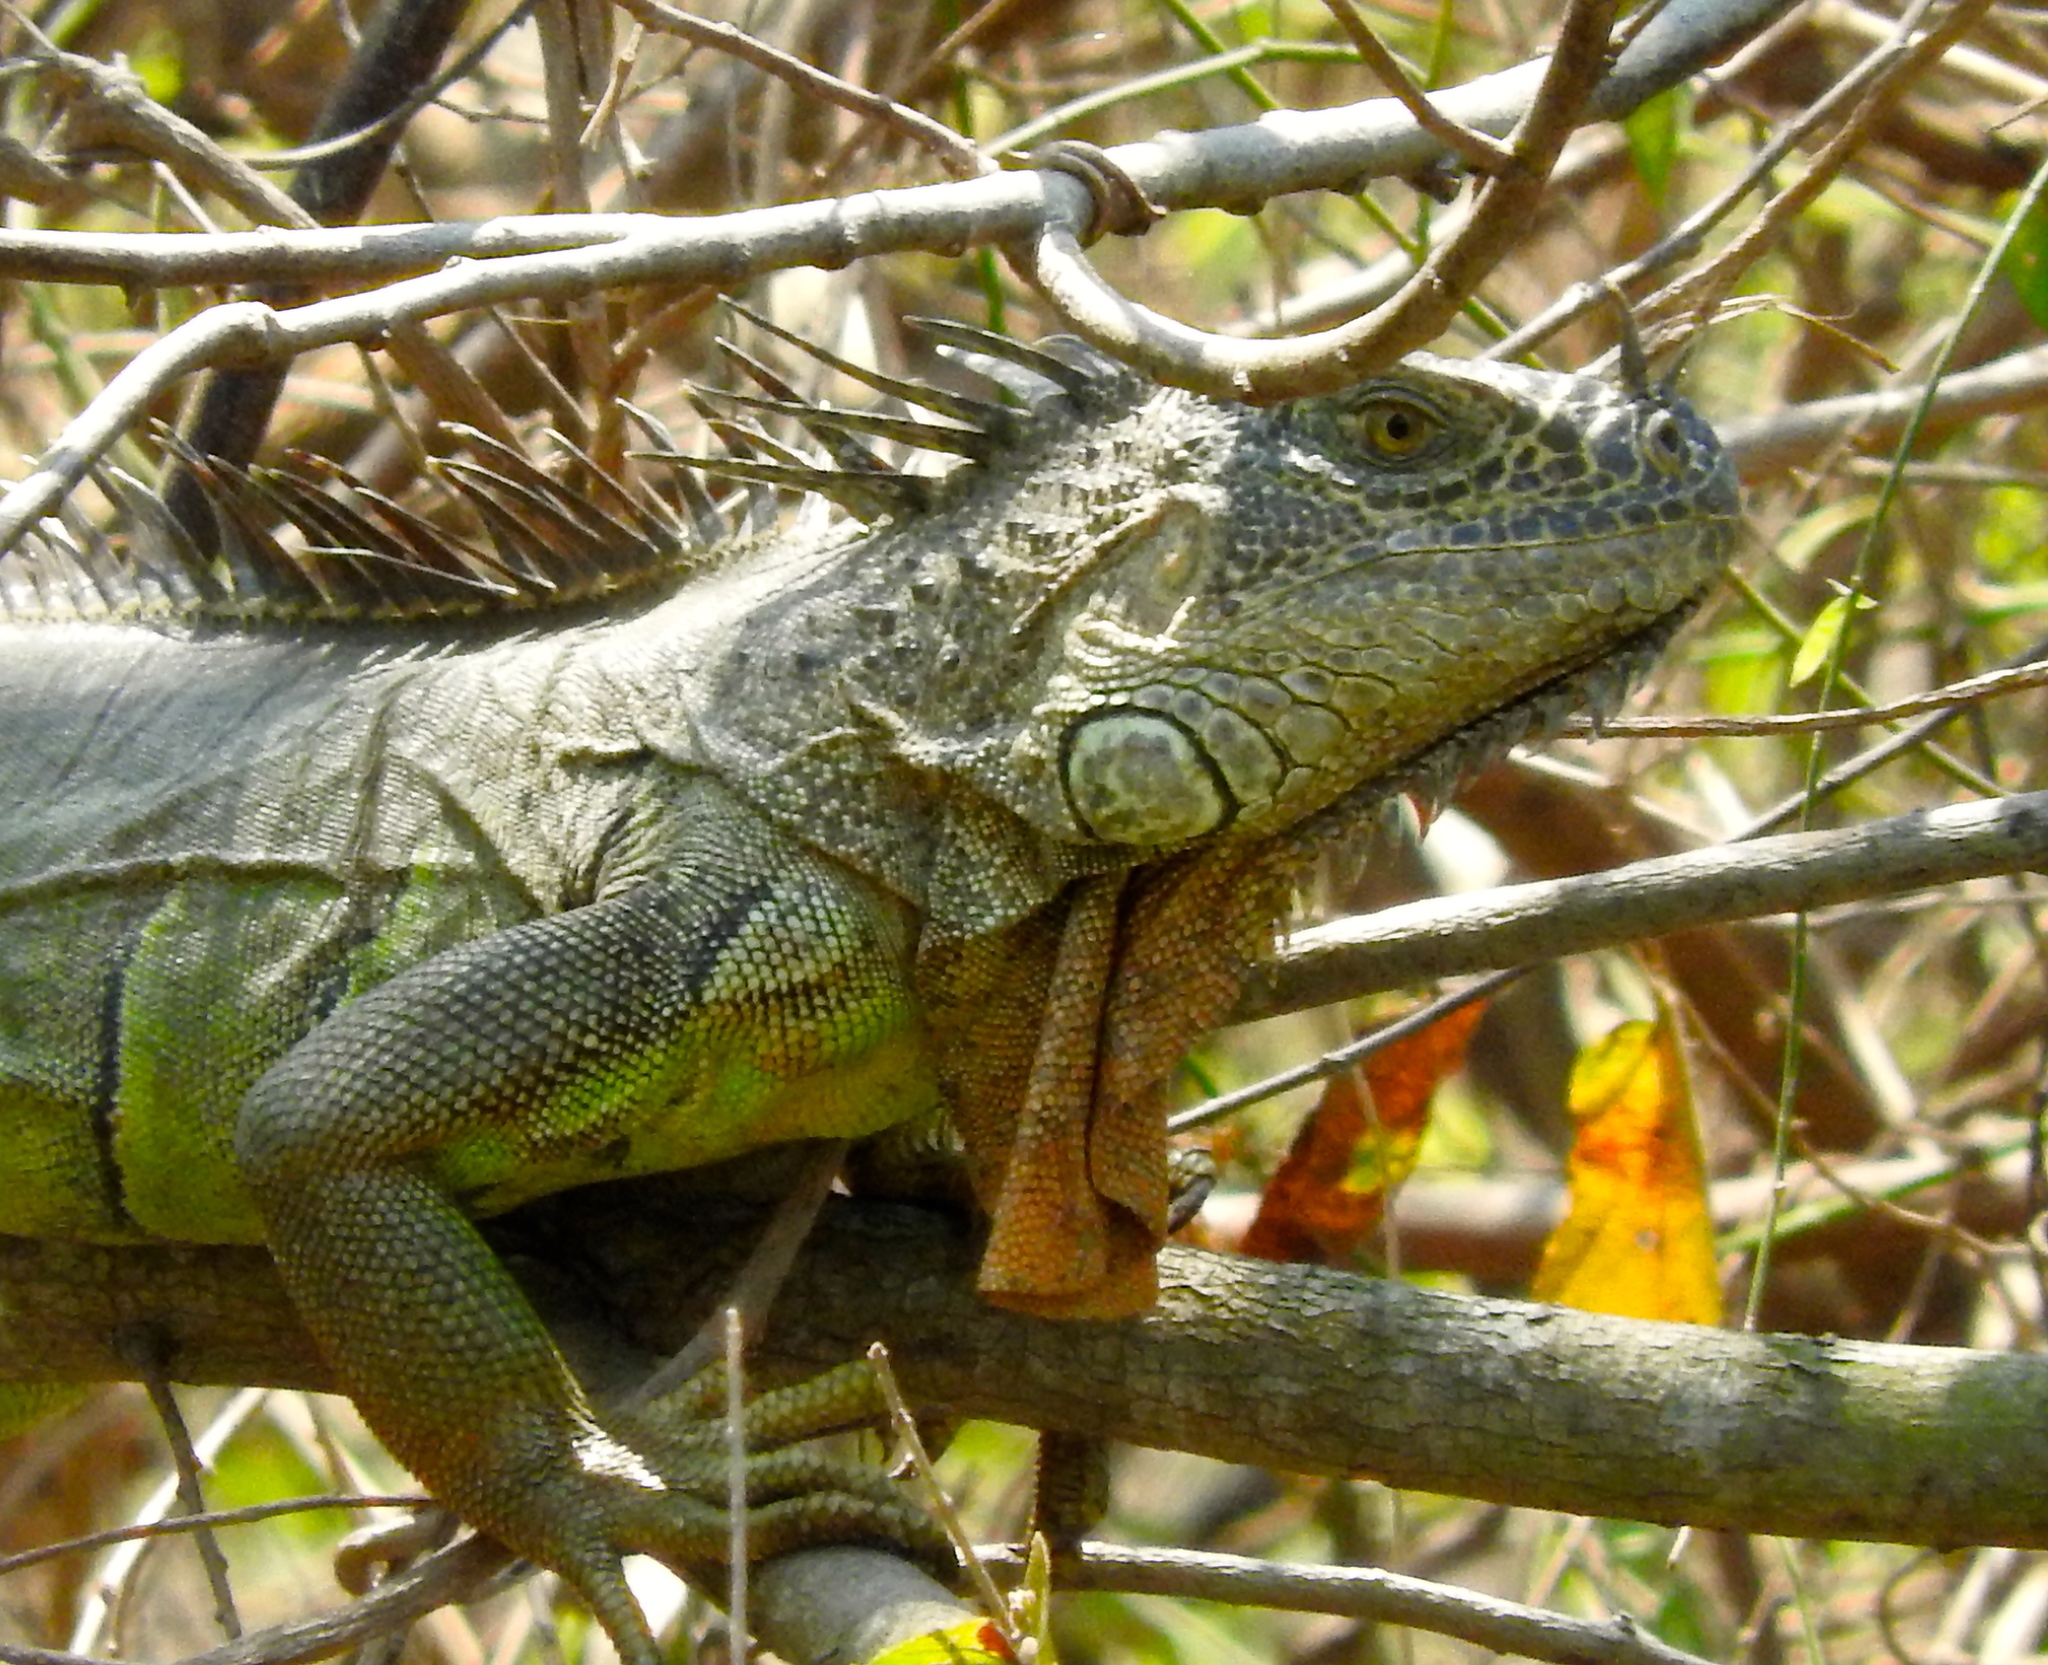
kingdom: Animalia
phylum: Chordata
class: Squamata
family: Iguanidae
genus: Iguana
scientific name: Iguana iguana
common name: Green iguana
